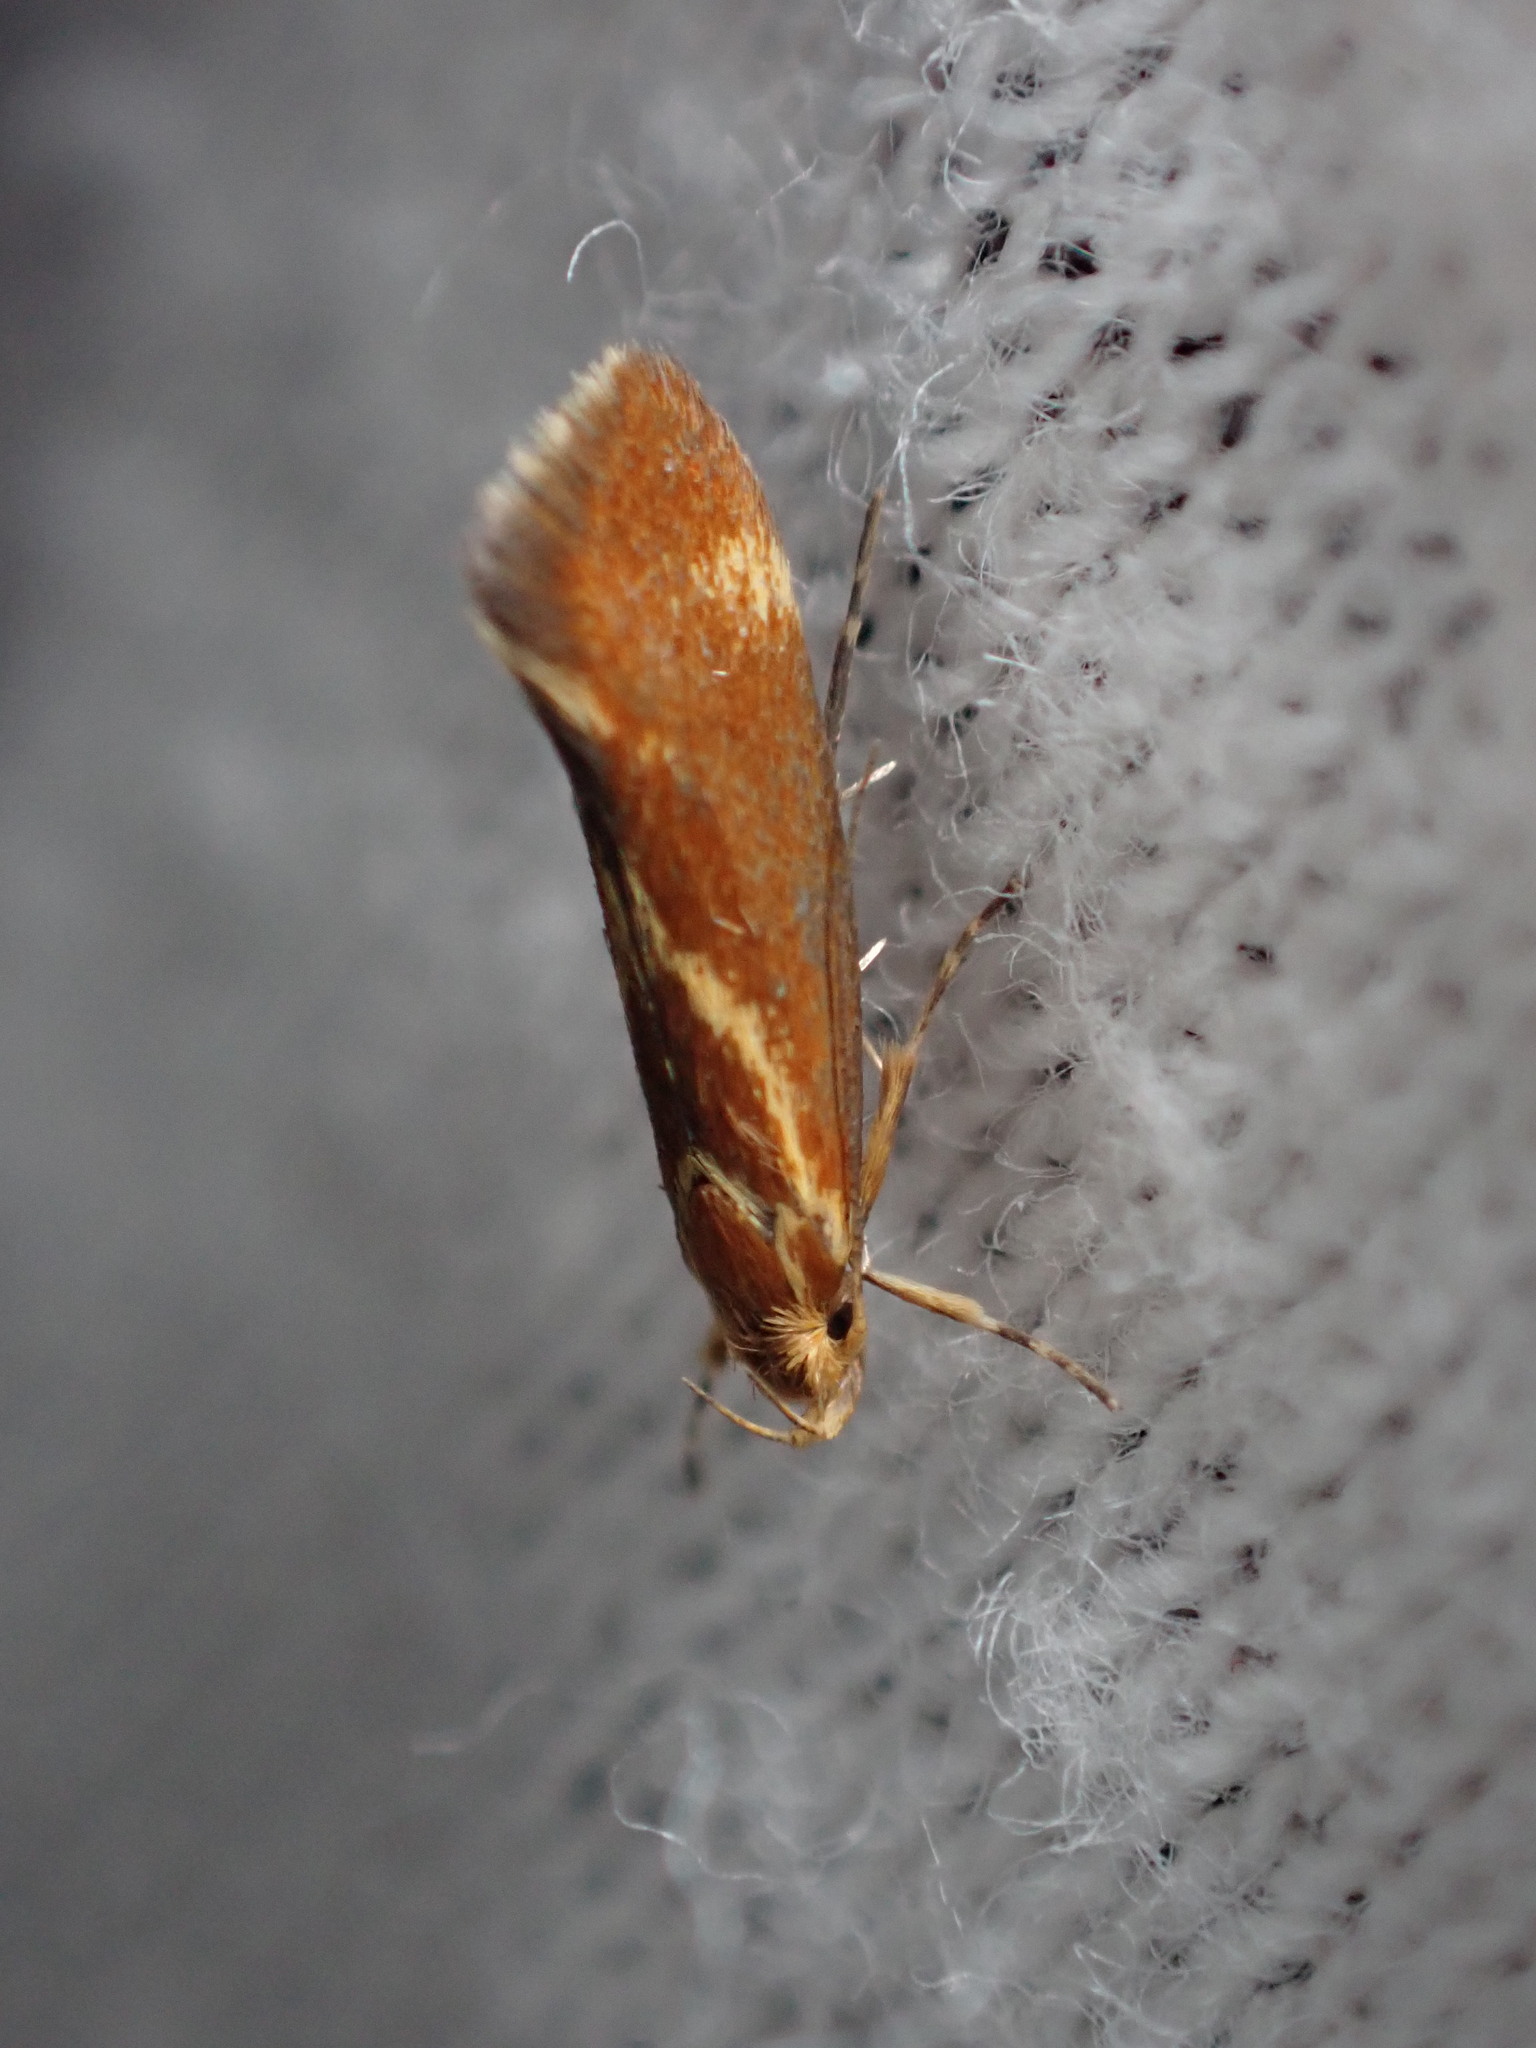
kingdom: Animalia
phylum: Arthropoda
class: Insecta
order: Lepidoptera
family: Oecophoridae
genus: Borkhausenia
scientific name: Borkhausenia italica
